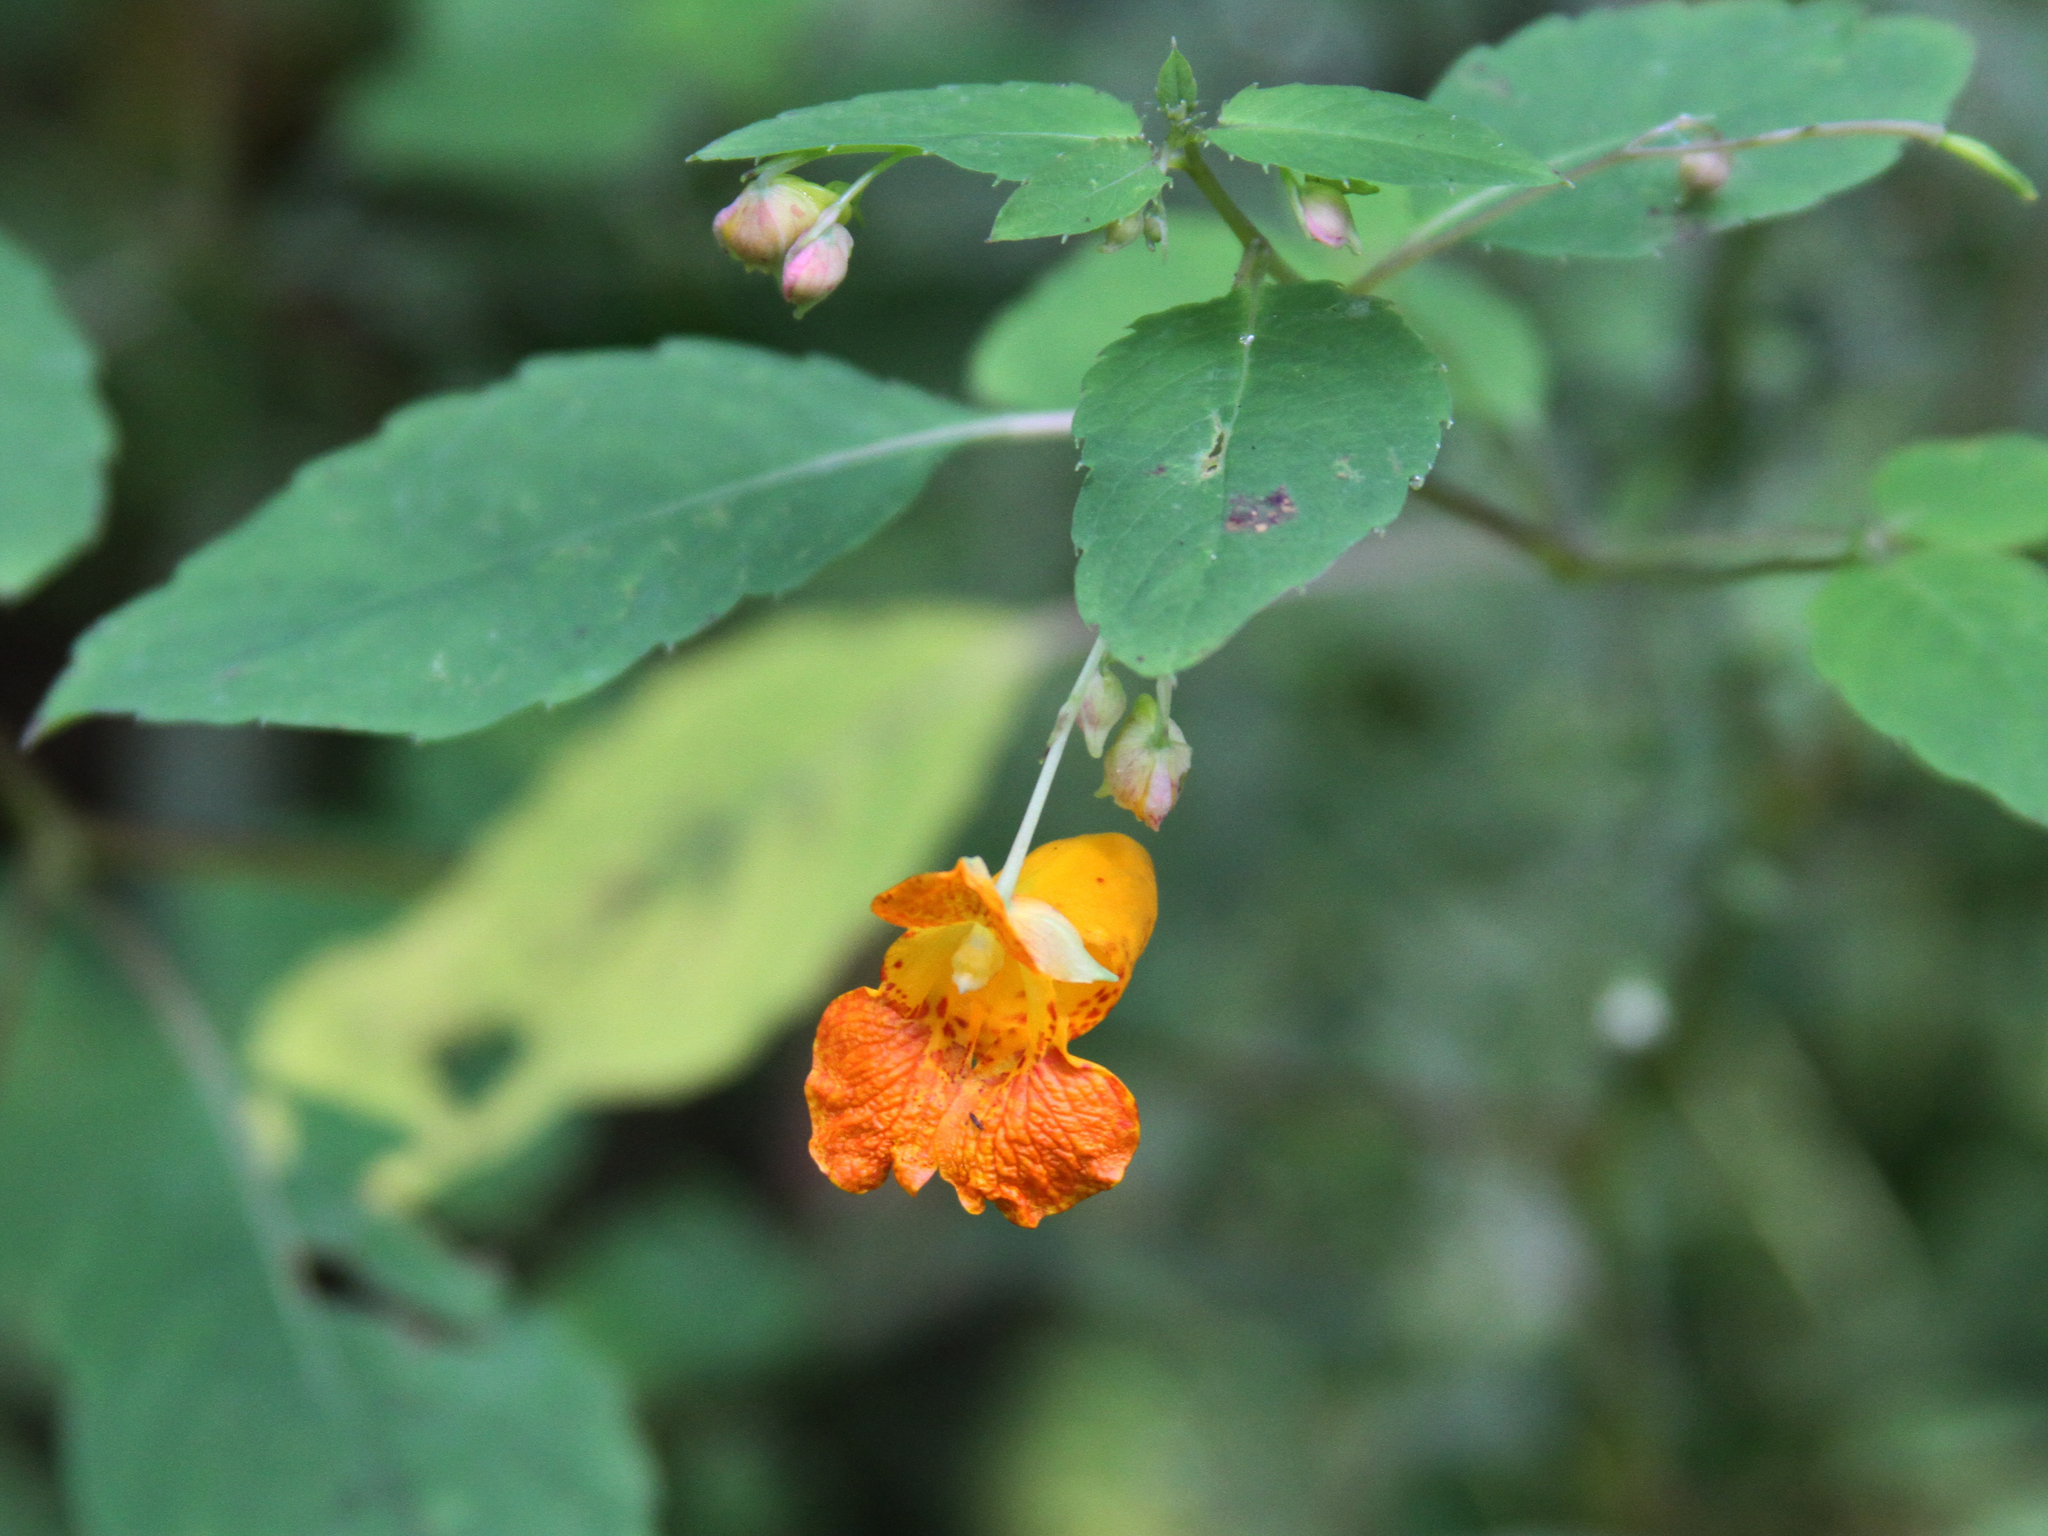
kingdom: Plantae
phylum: Tracheophyta
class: Magnoliopsida
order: Ericales
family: Balsaminaceae
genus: Impatiens
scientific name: Impatiens capensis
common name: Orange balsam
